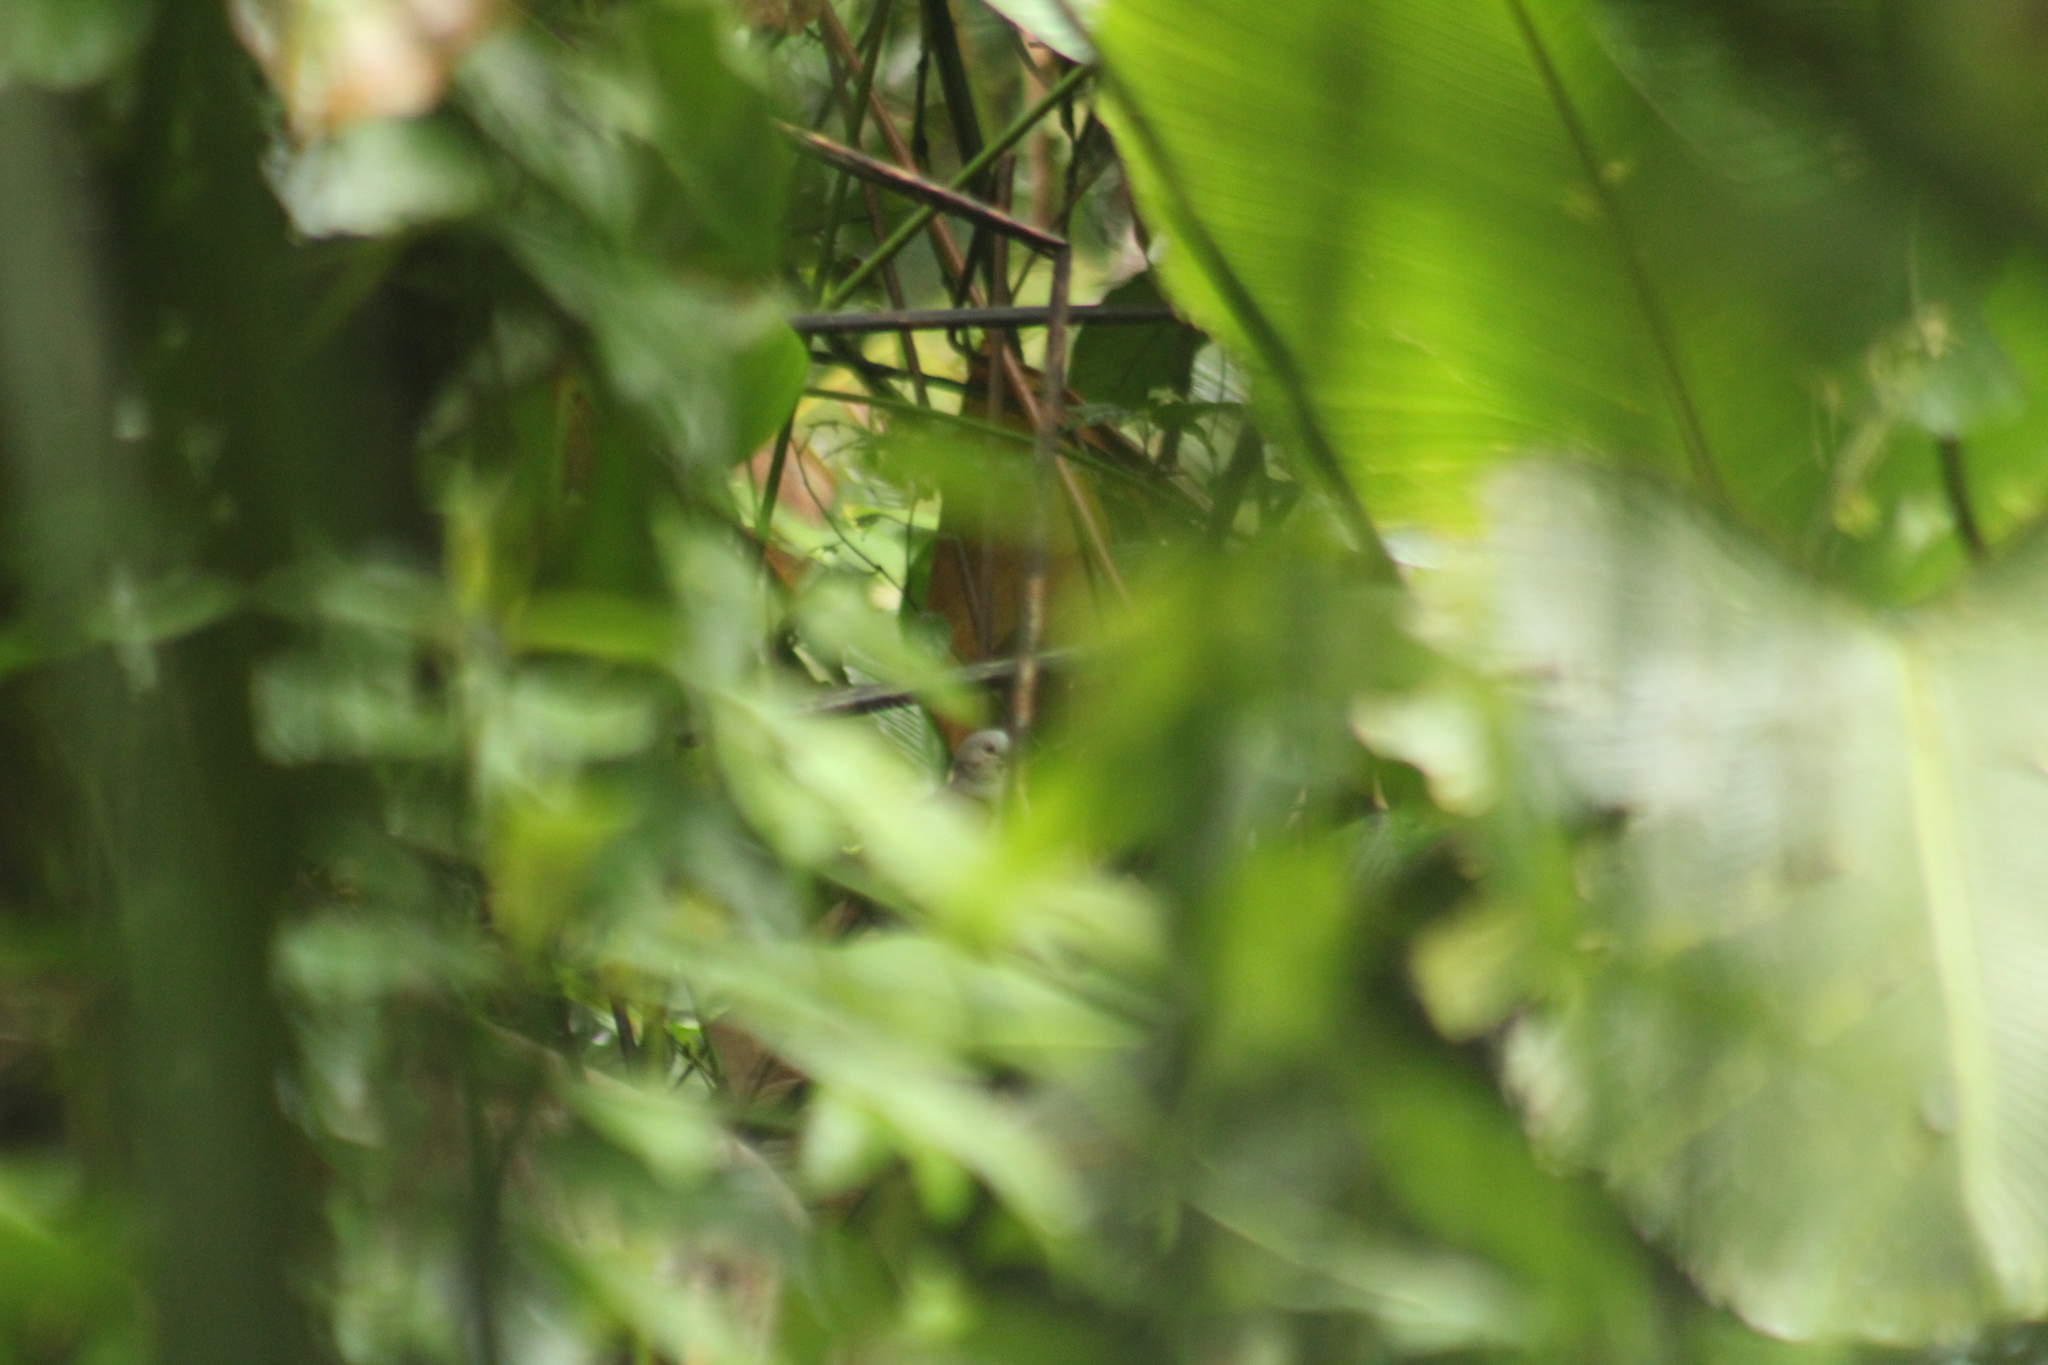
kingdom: Animalia
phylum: Chordata
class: Aves
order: Columbiformes
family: Columbidae
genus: Leptotila
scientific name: Leptotila pallida
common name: Pallid dove
